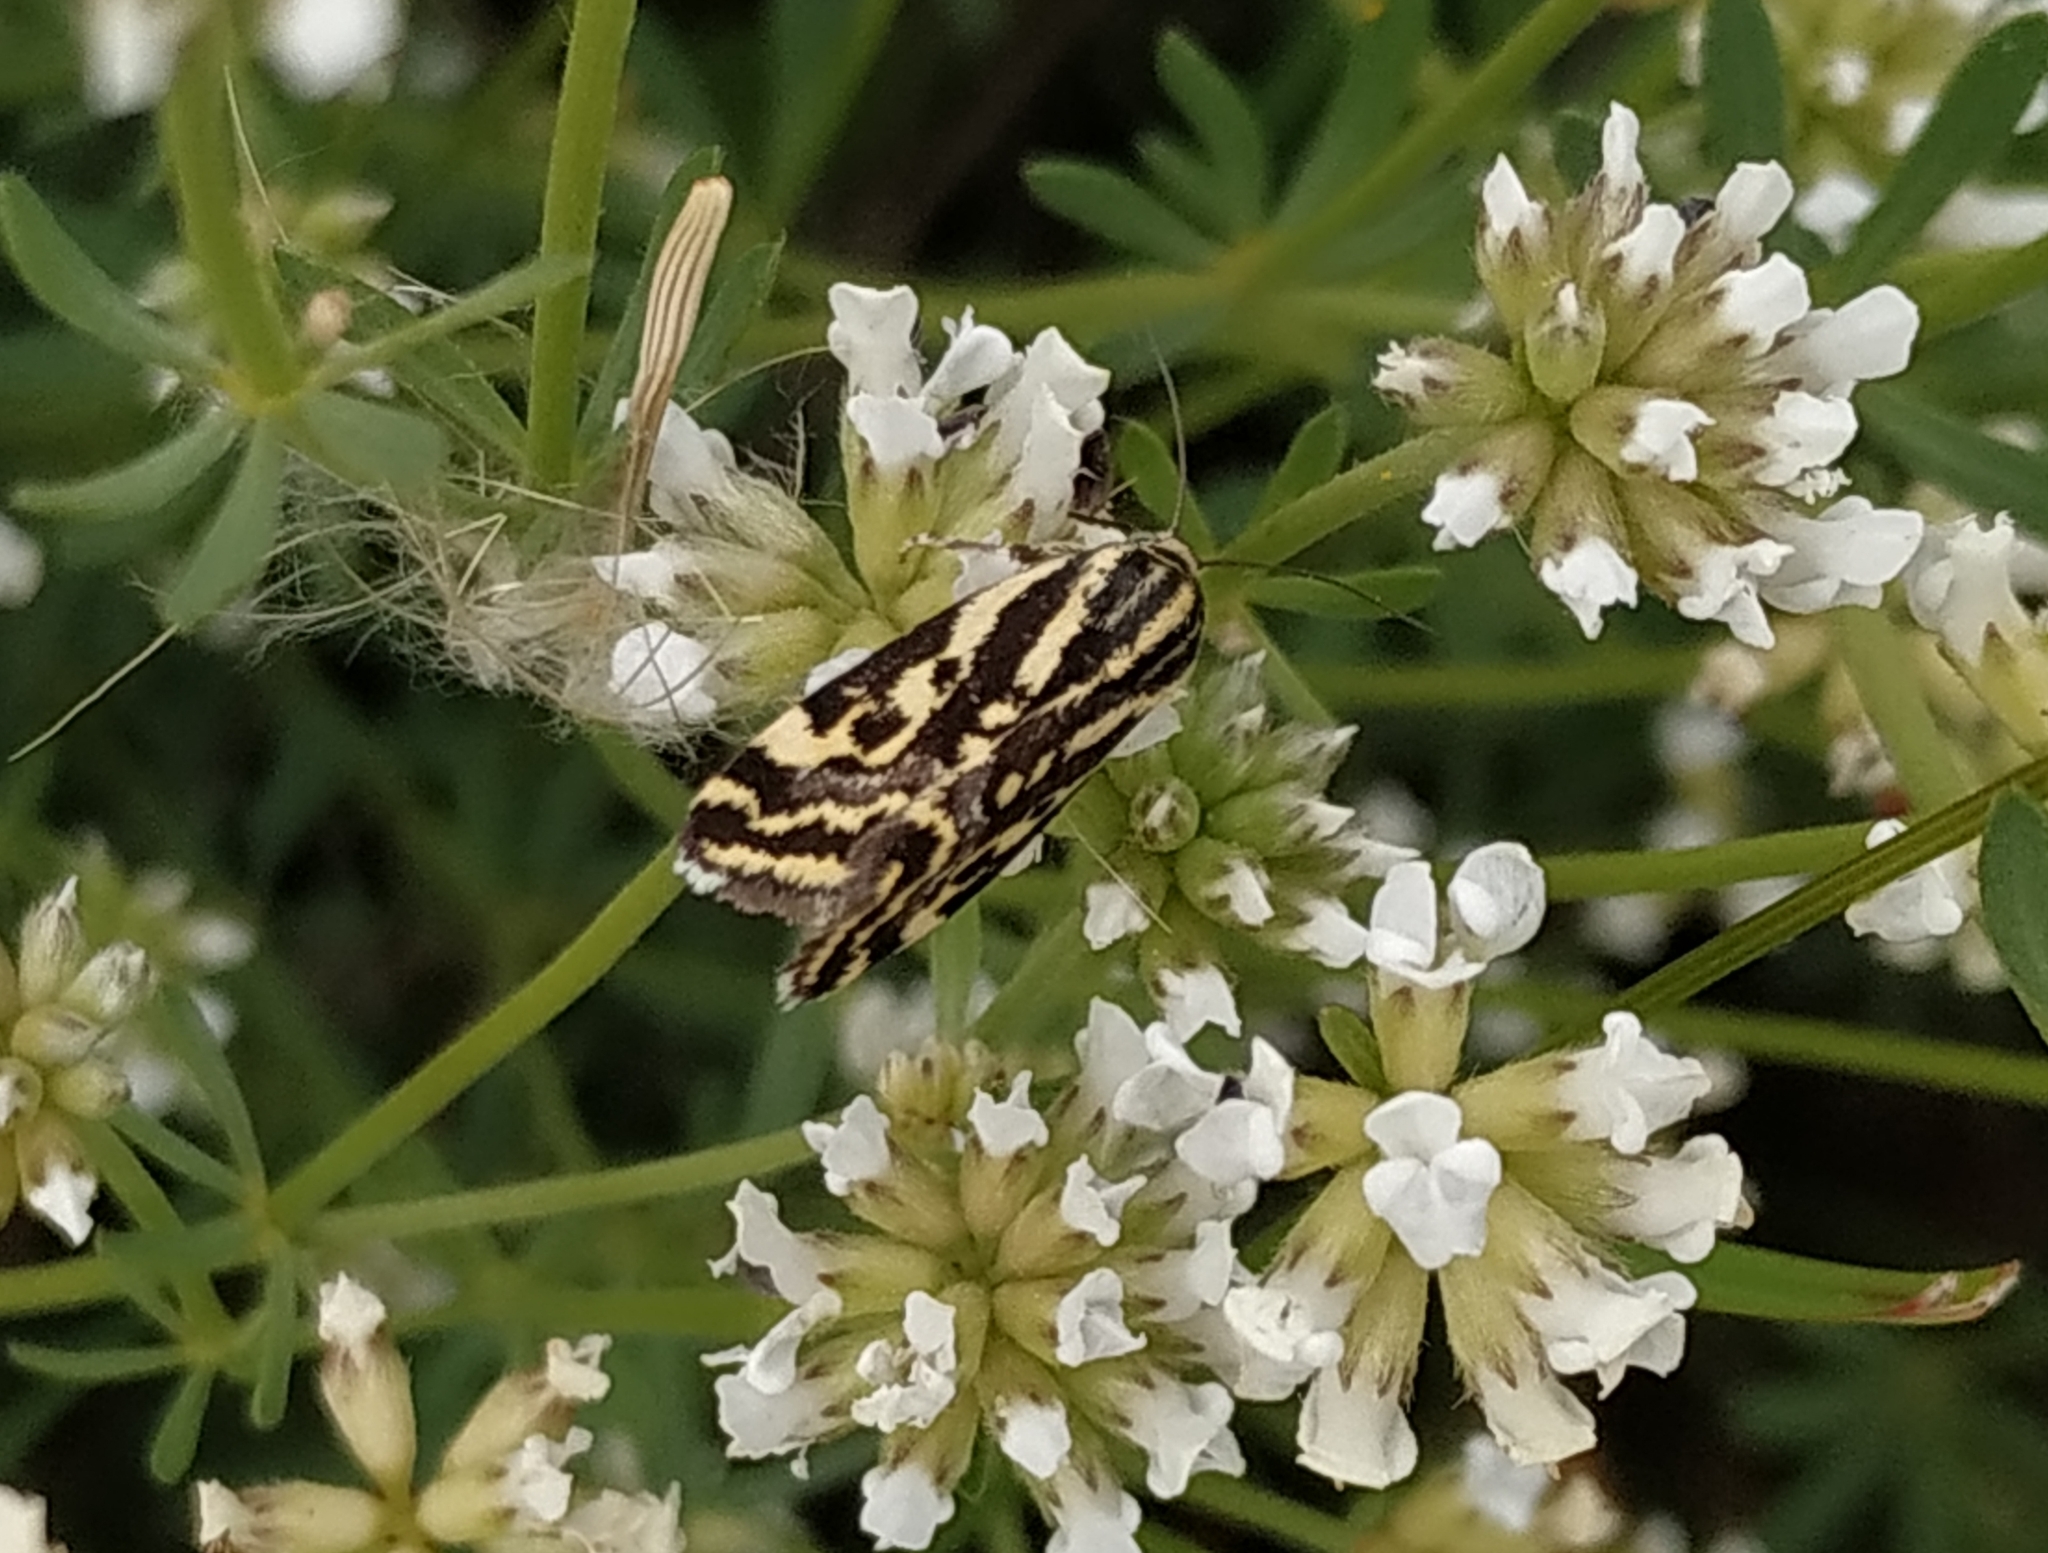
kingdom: Animalia
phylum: Arthropoda
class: Insecta
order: Lepidoptera
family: Noctuidae
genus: Acontia
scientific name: Acontia trabealis
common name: Spotted sulphur
